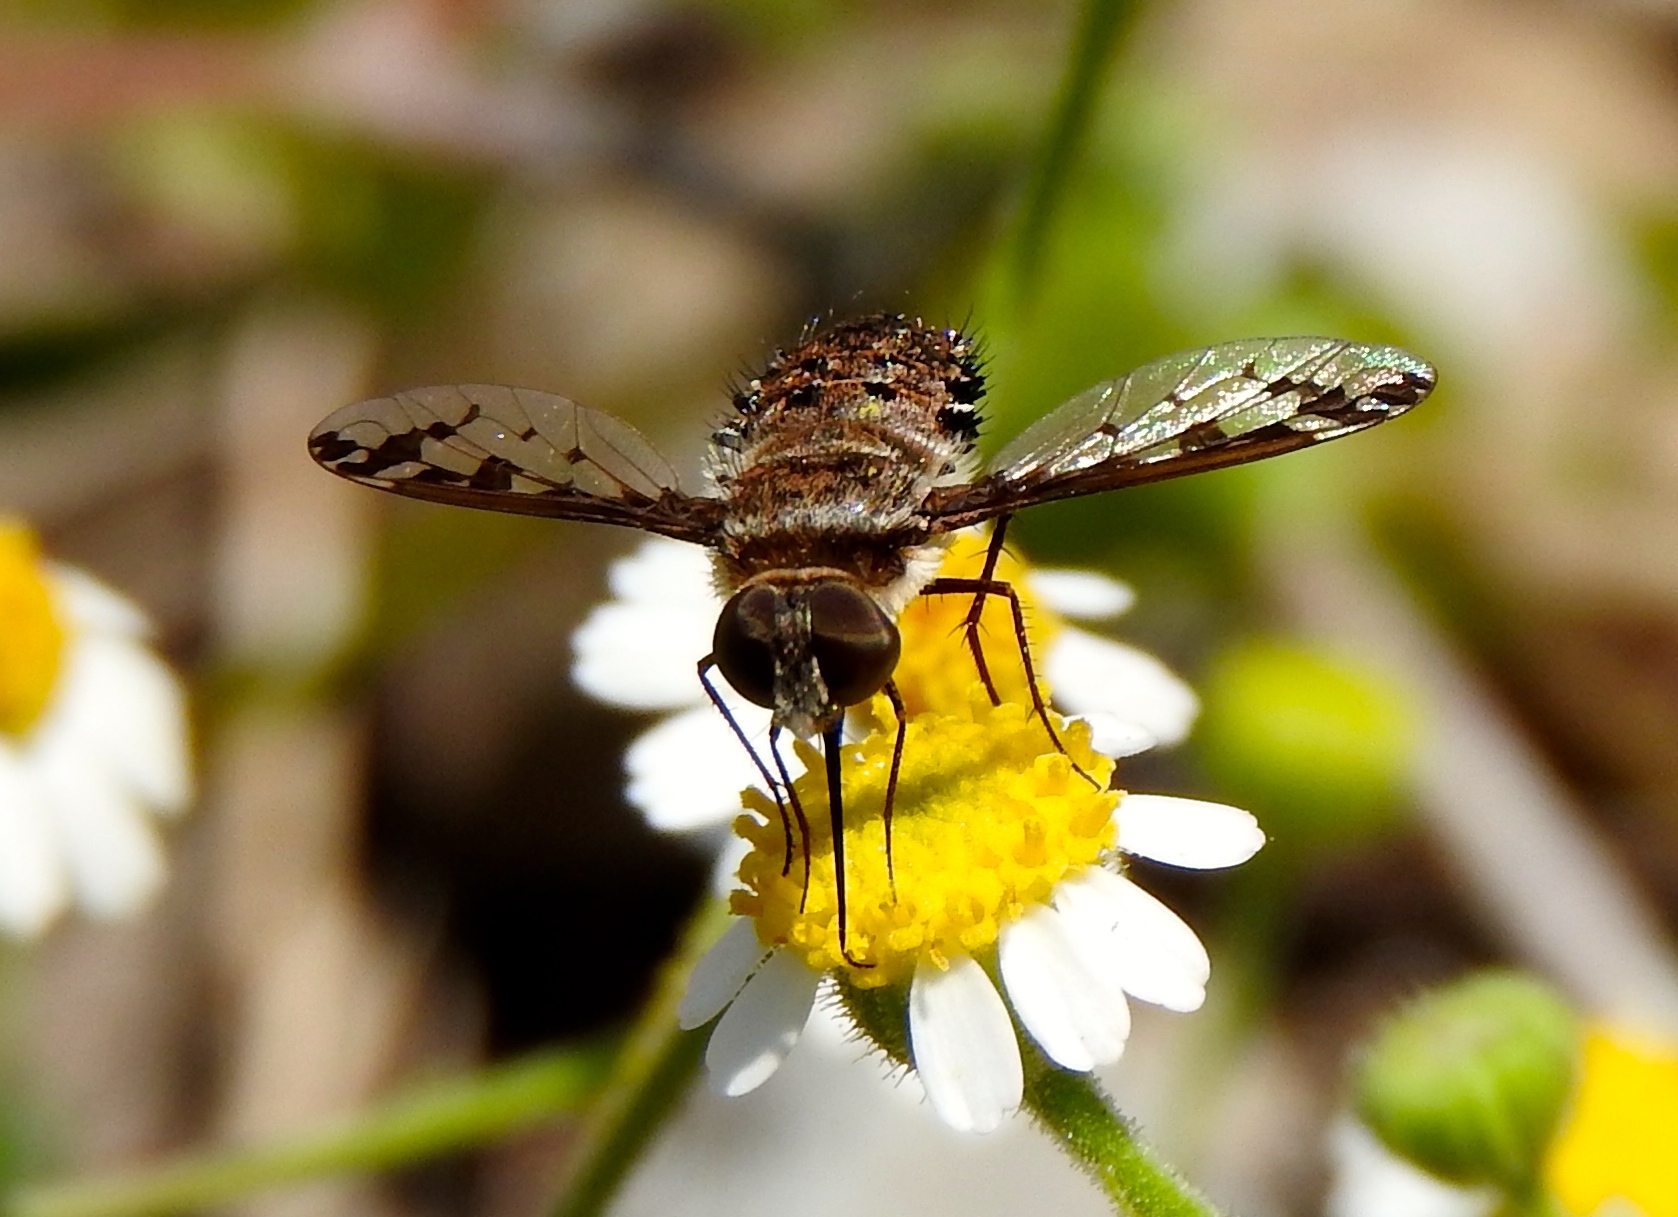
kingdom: Animalia
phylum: Arthropoda
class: Insecta
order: Diptera
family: Bombyliidae
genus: Lepidanthrax
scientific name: Lepidanthrax
